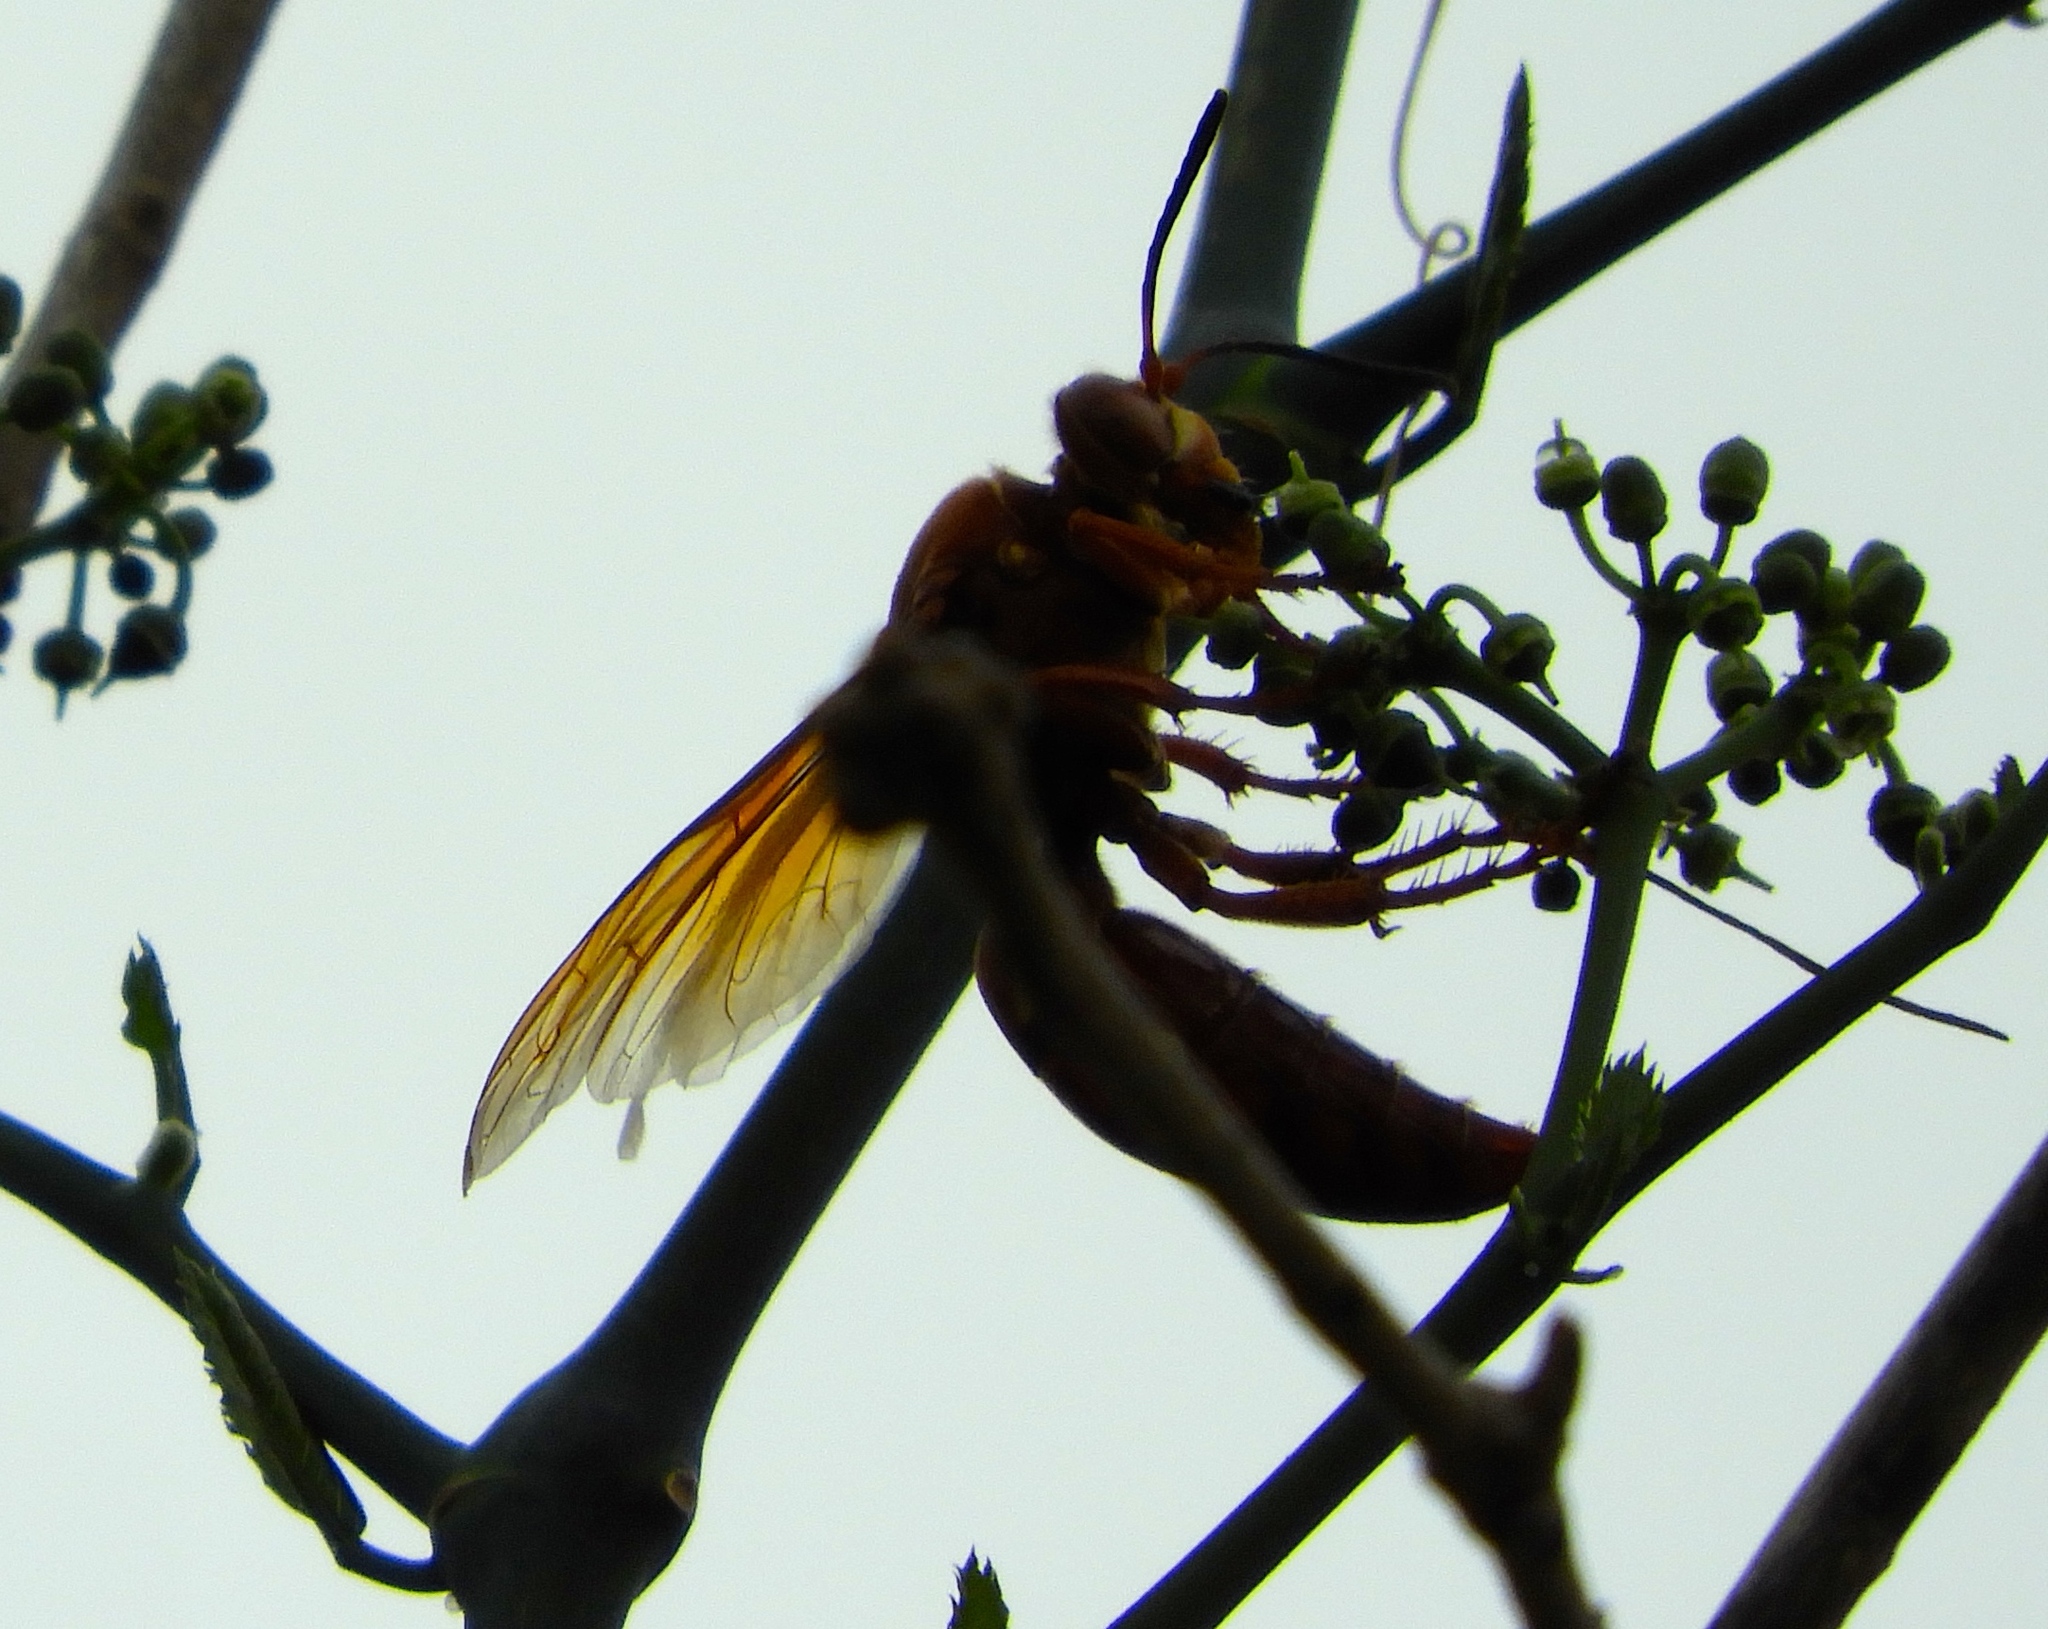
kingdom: Animalia
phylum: Arthropoda
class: Insecta
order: Hymenoptera
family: Crabronidae
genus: Sphecius
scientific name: Sphecius
